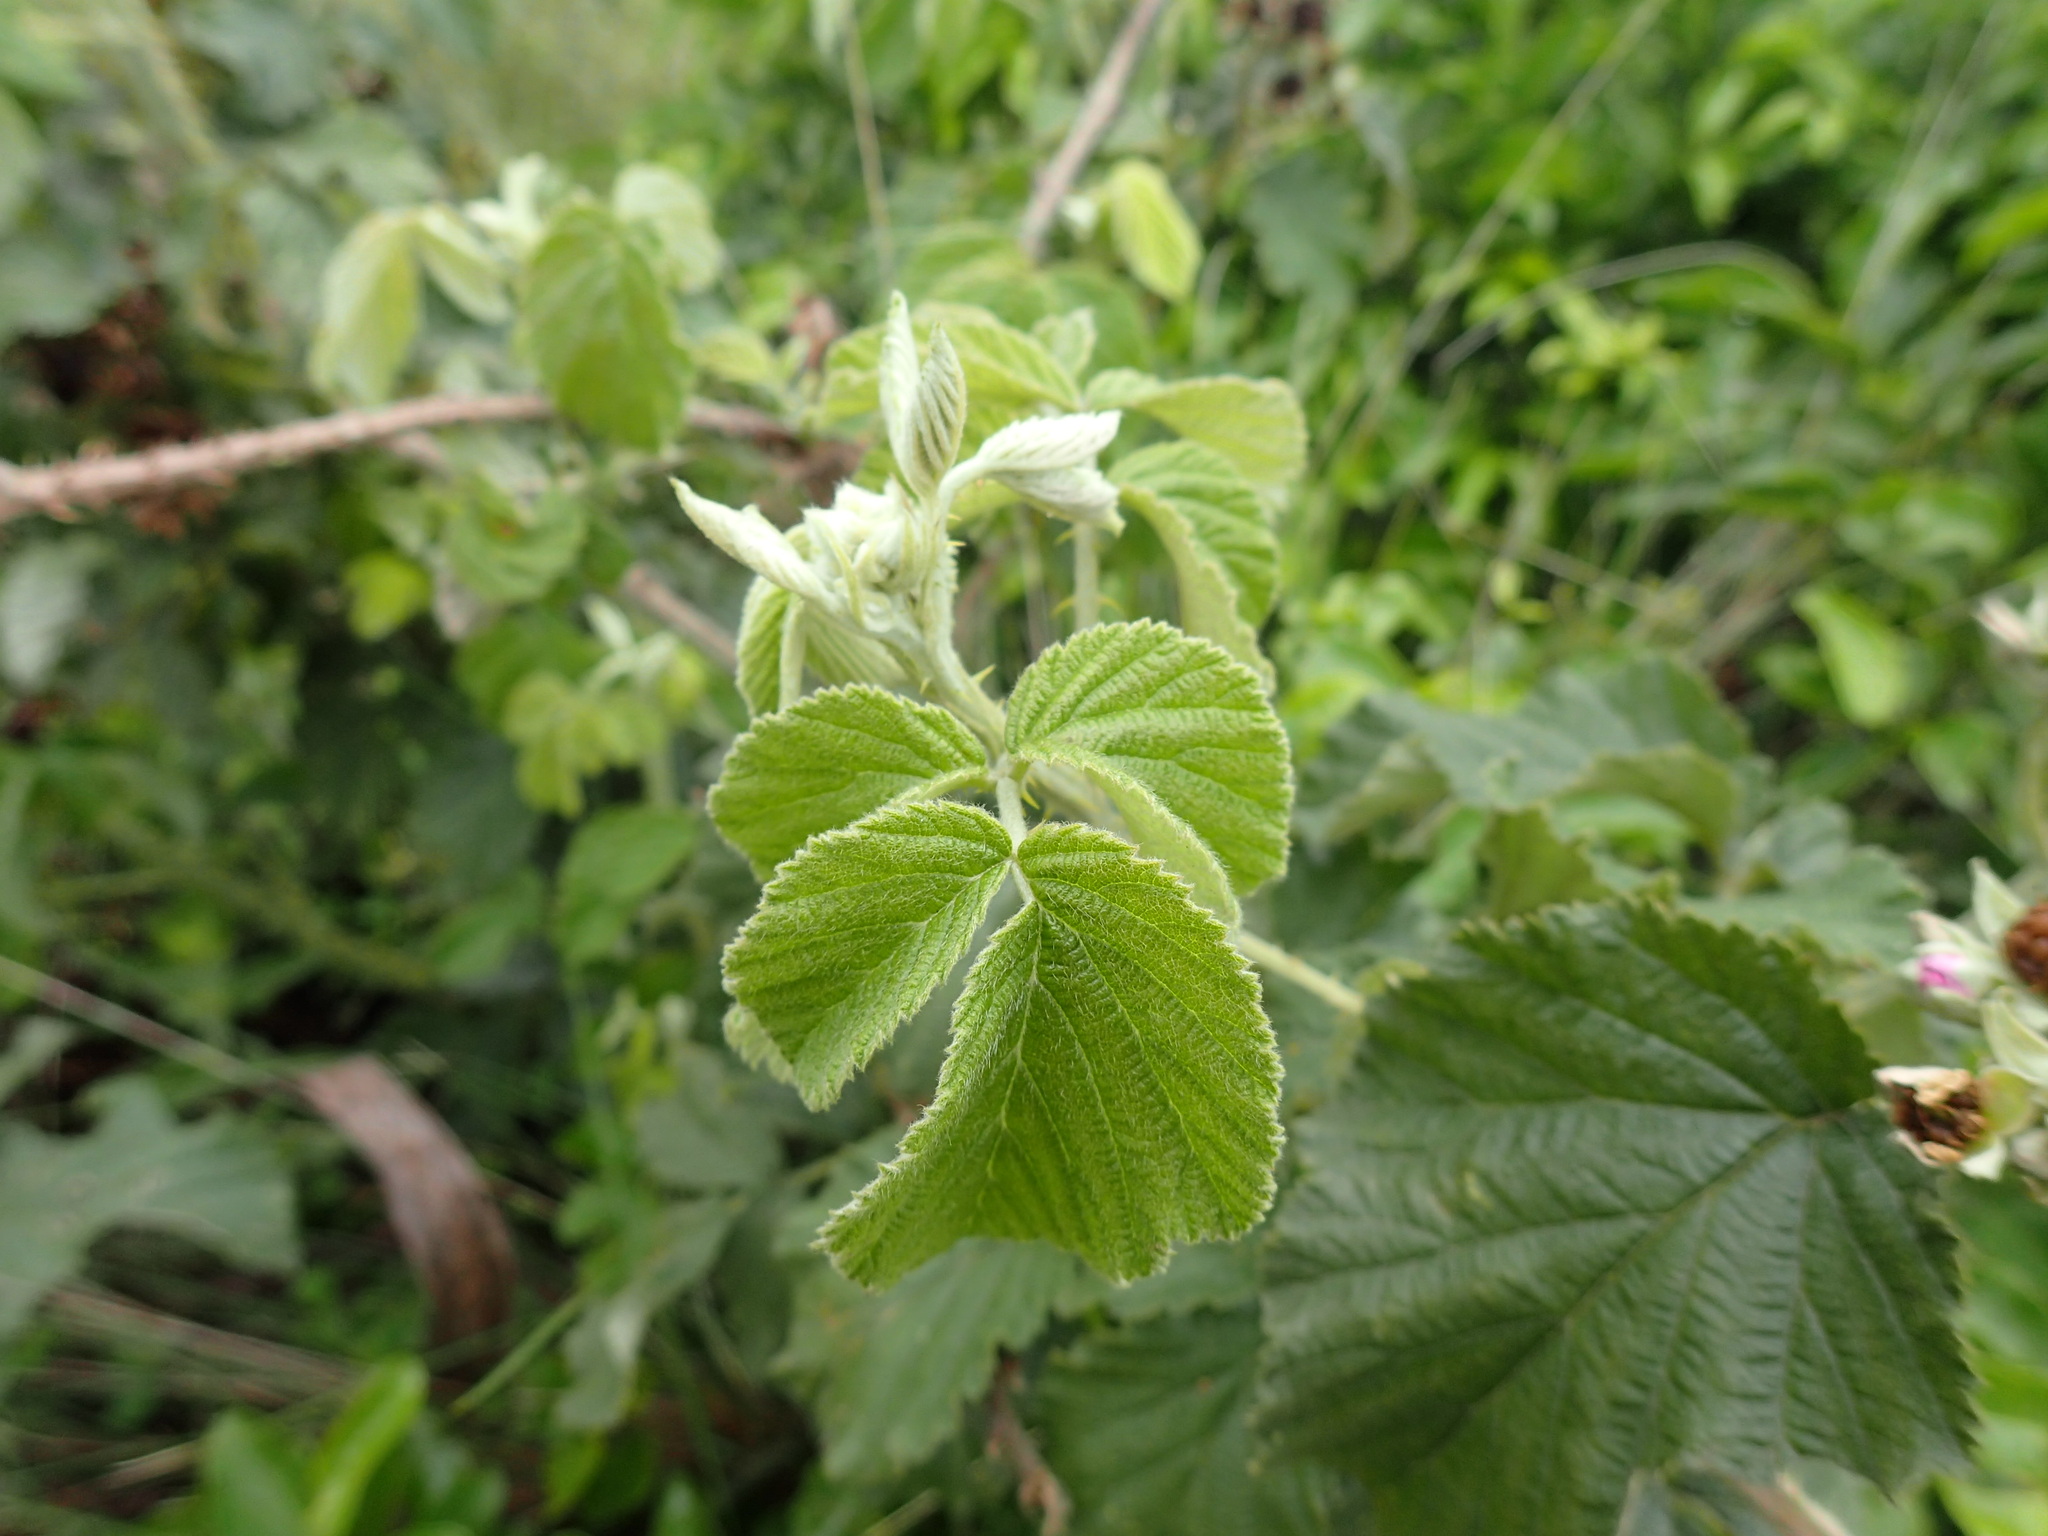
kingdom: Plantae
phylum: Tracheophyta
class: Magnoliopsida
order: Rosales
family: Rosaceae
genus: Rubus
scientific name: Rubus rigidus
